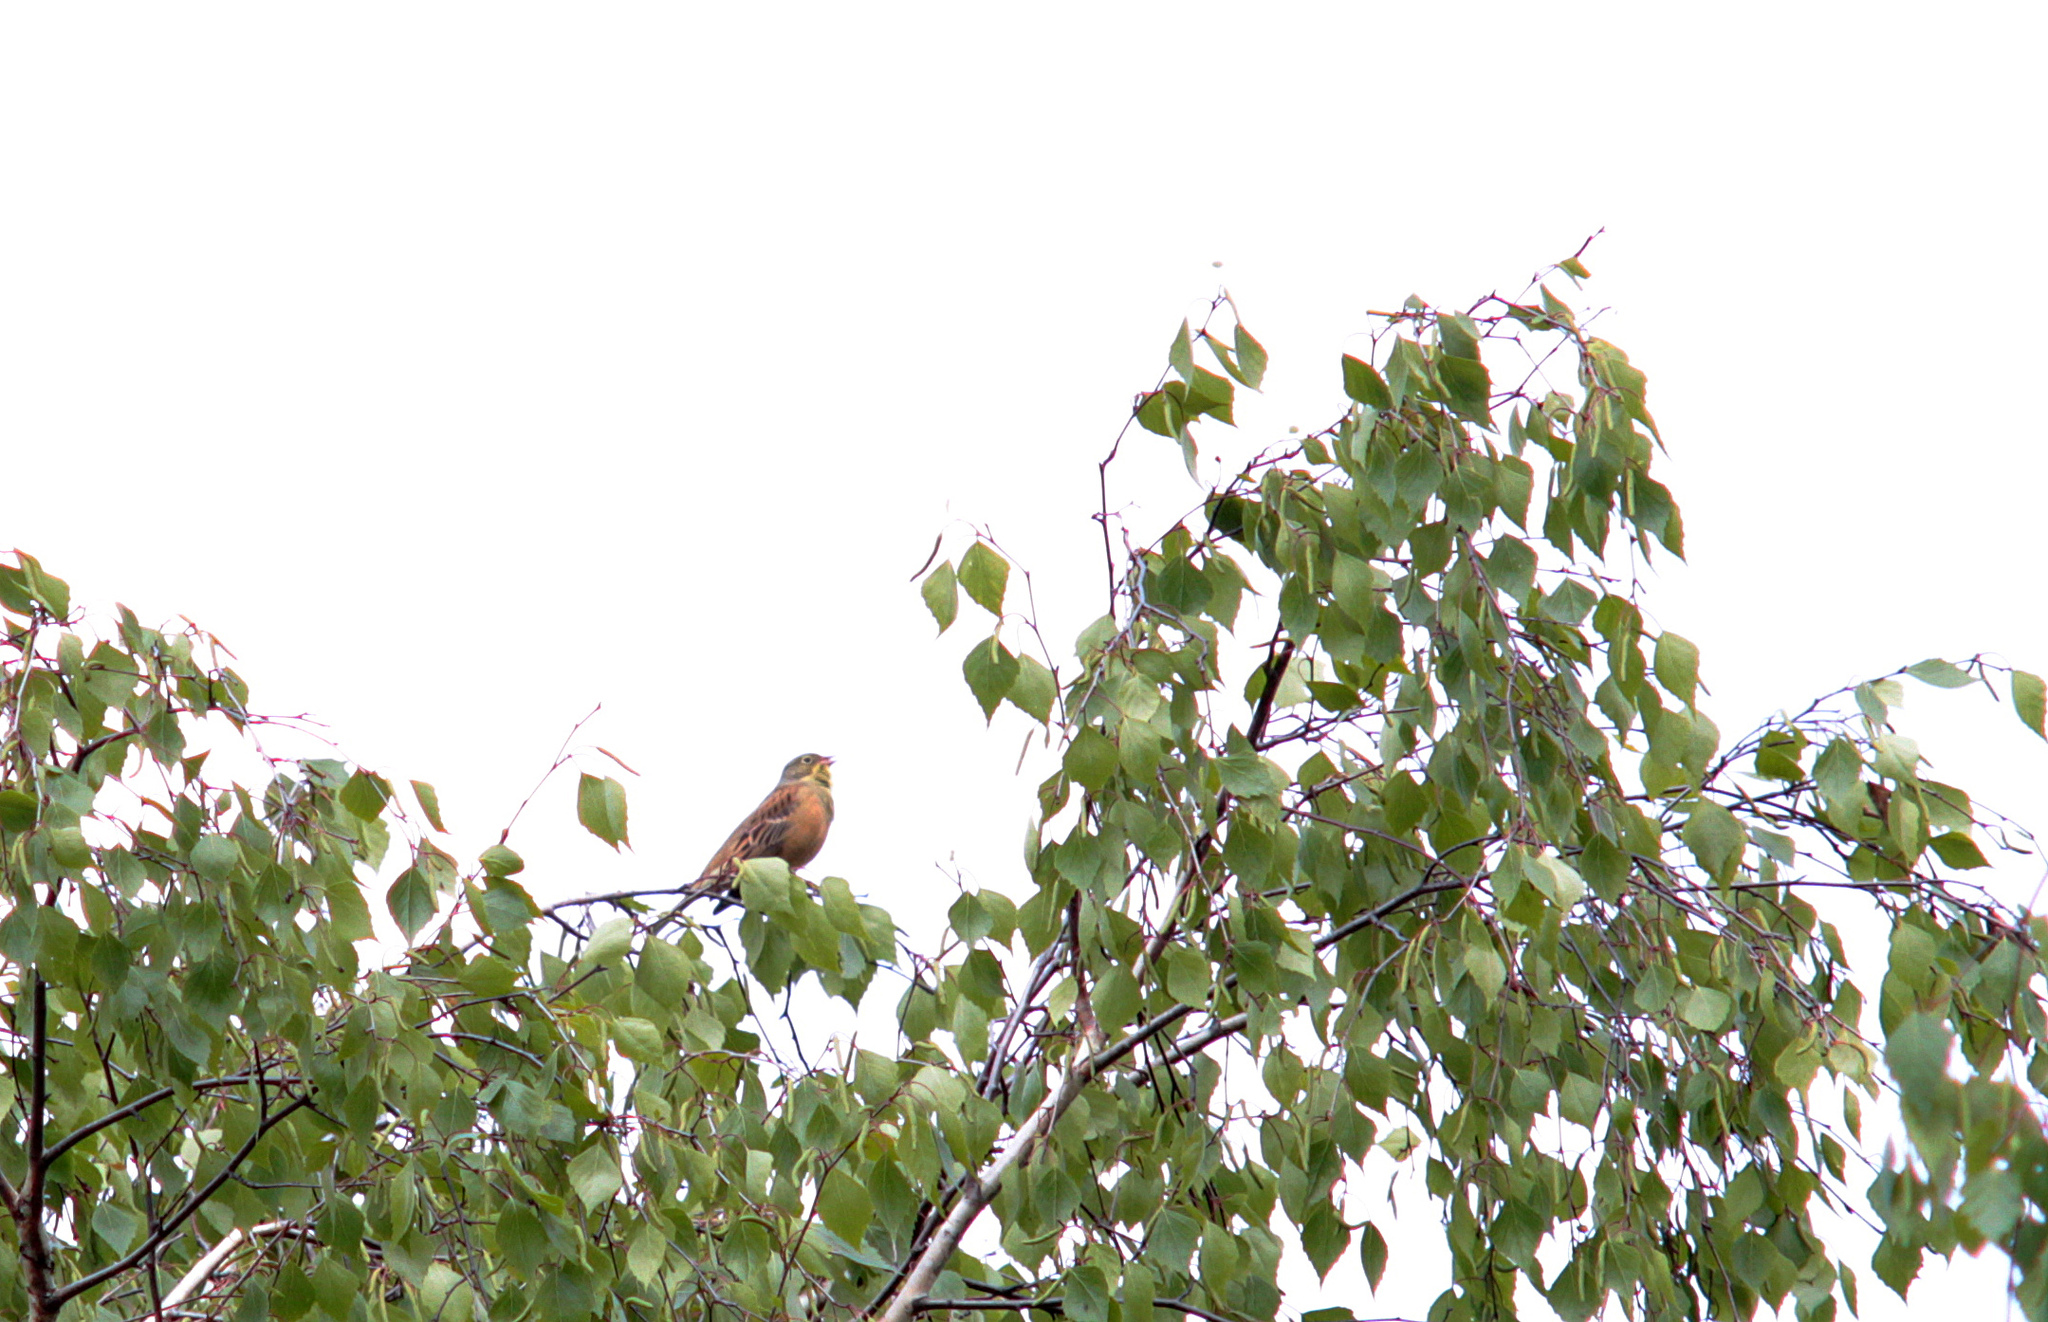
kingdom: Animalia
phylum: Chordata
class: Aves
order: Passeriformes
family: Emberizidae
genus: Emberiza
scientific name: Emberiza hortulana
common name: Ortolan bunting
